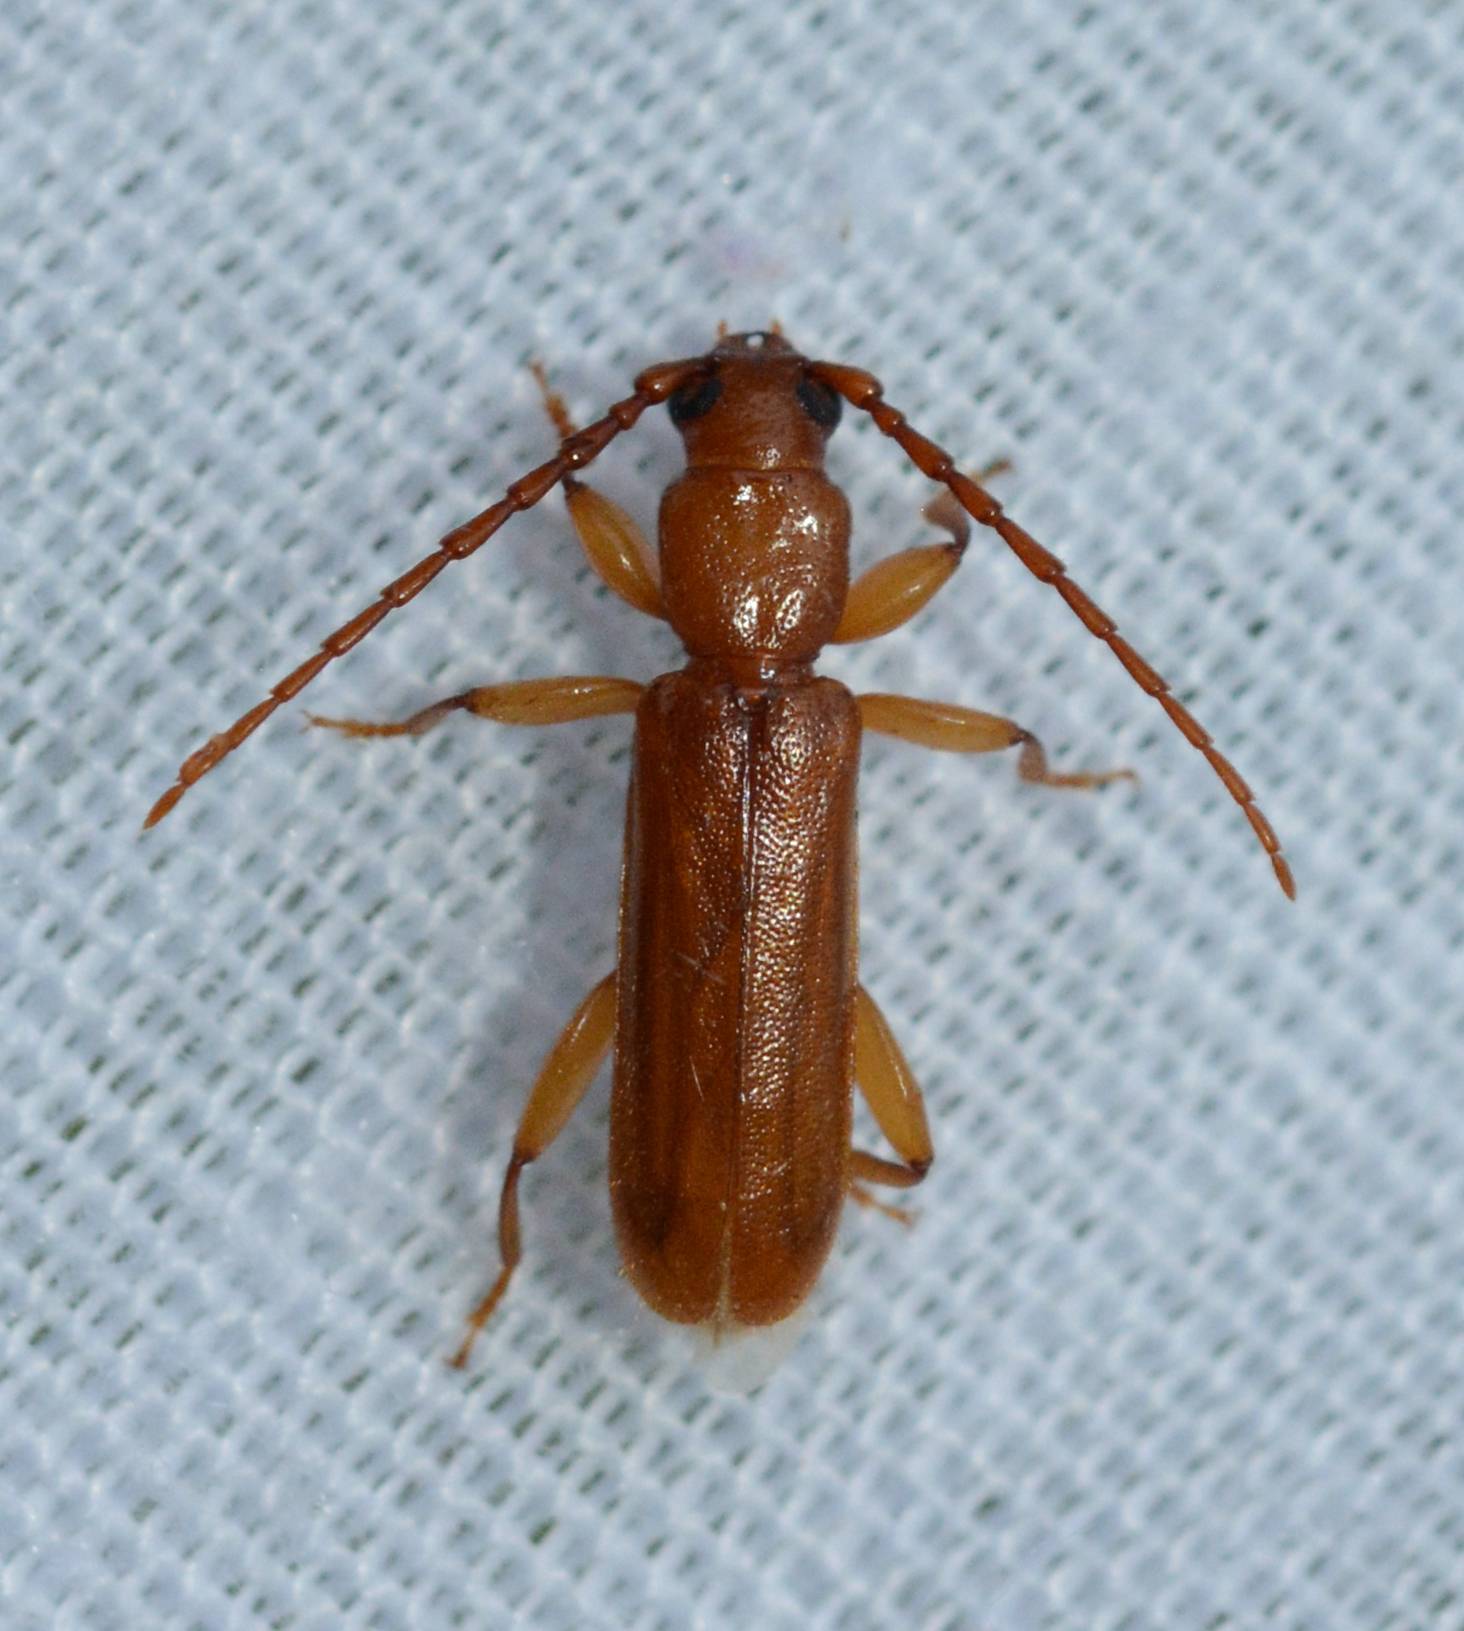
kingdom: Animalia
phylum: Arthropoda
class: Insecta
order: Coleoptera
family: Cerambycidae
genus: Smodicum
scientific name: Smodicum cucujiforme
